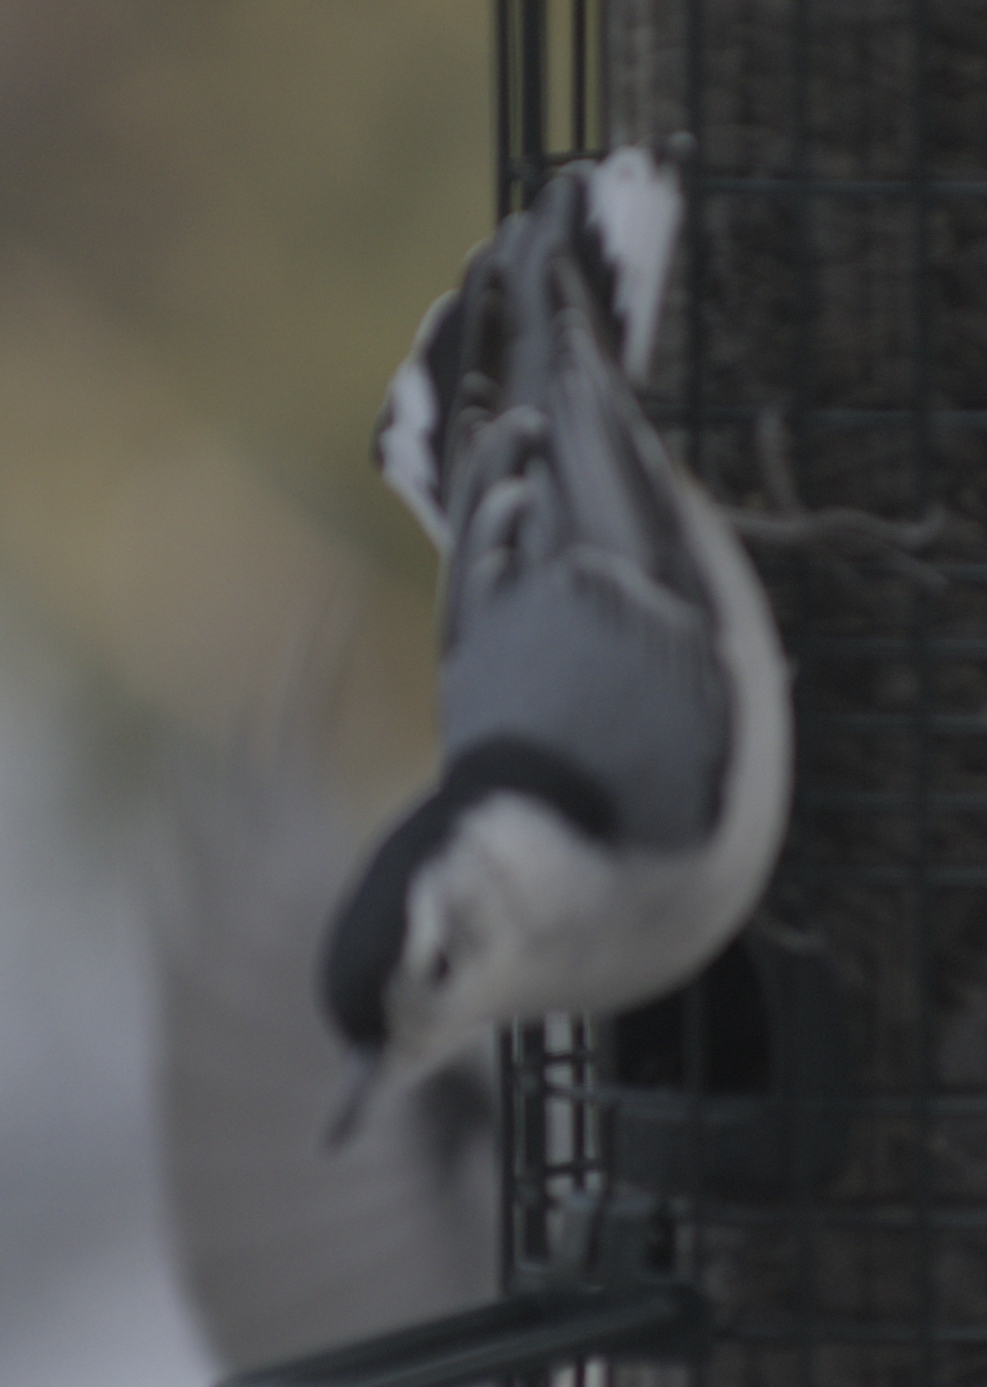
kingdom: Animalia
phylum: Chordata
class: Aves
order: Passeriformes
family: Sittidae
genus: Sitta
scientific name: Sitta carolinensis
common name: White-breasted nuthatch
